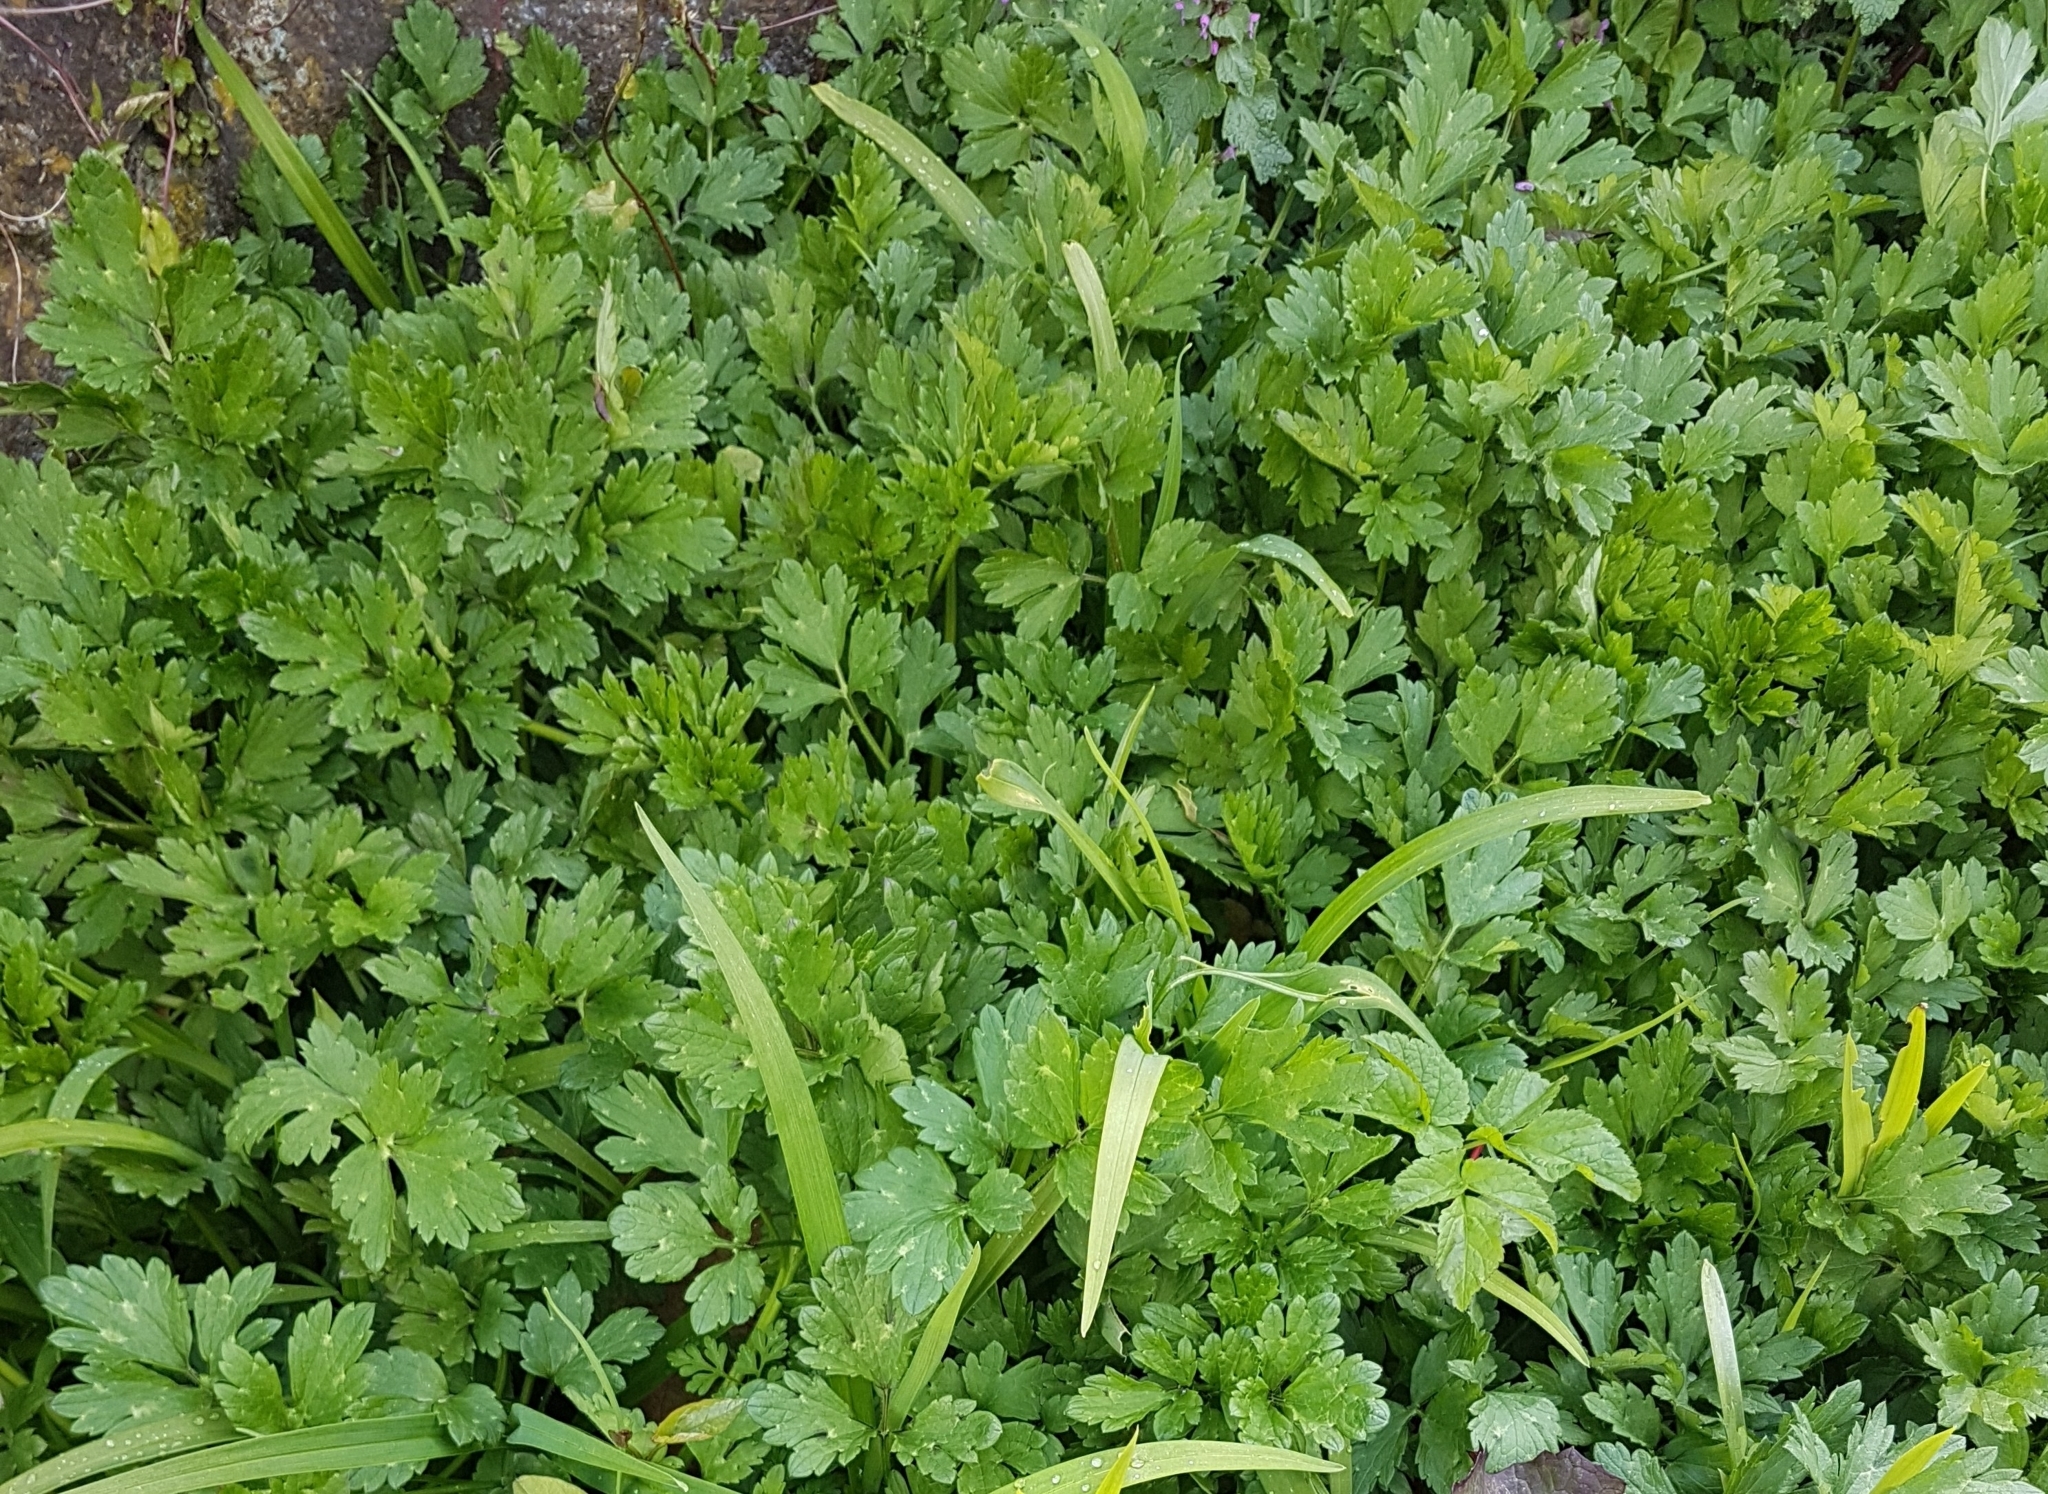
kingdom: Plantae
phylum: Tracheophyta
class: Magnoliopsida
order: Ranunculales
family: Ranunculaceae
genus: Ranunculus
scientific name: Ranunculus repens
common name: Creeping buttercup
